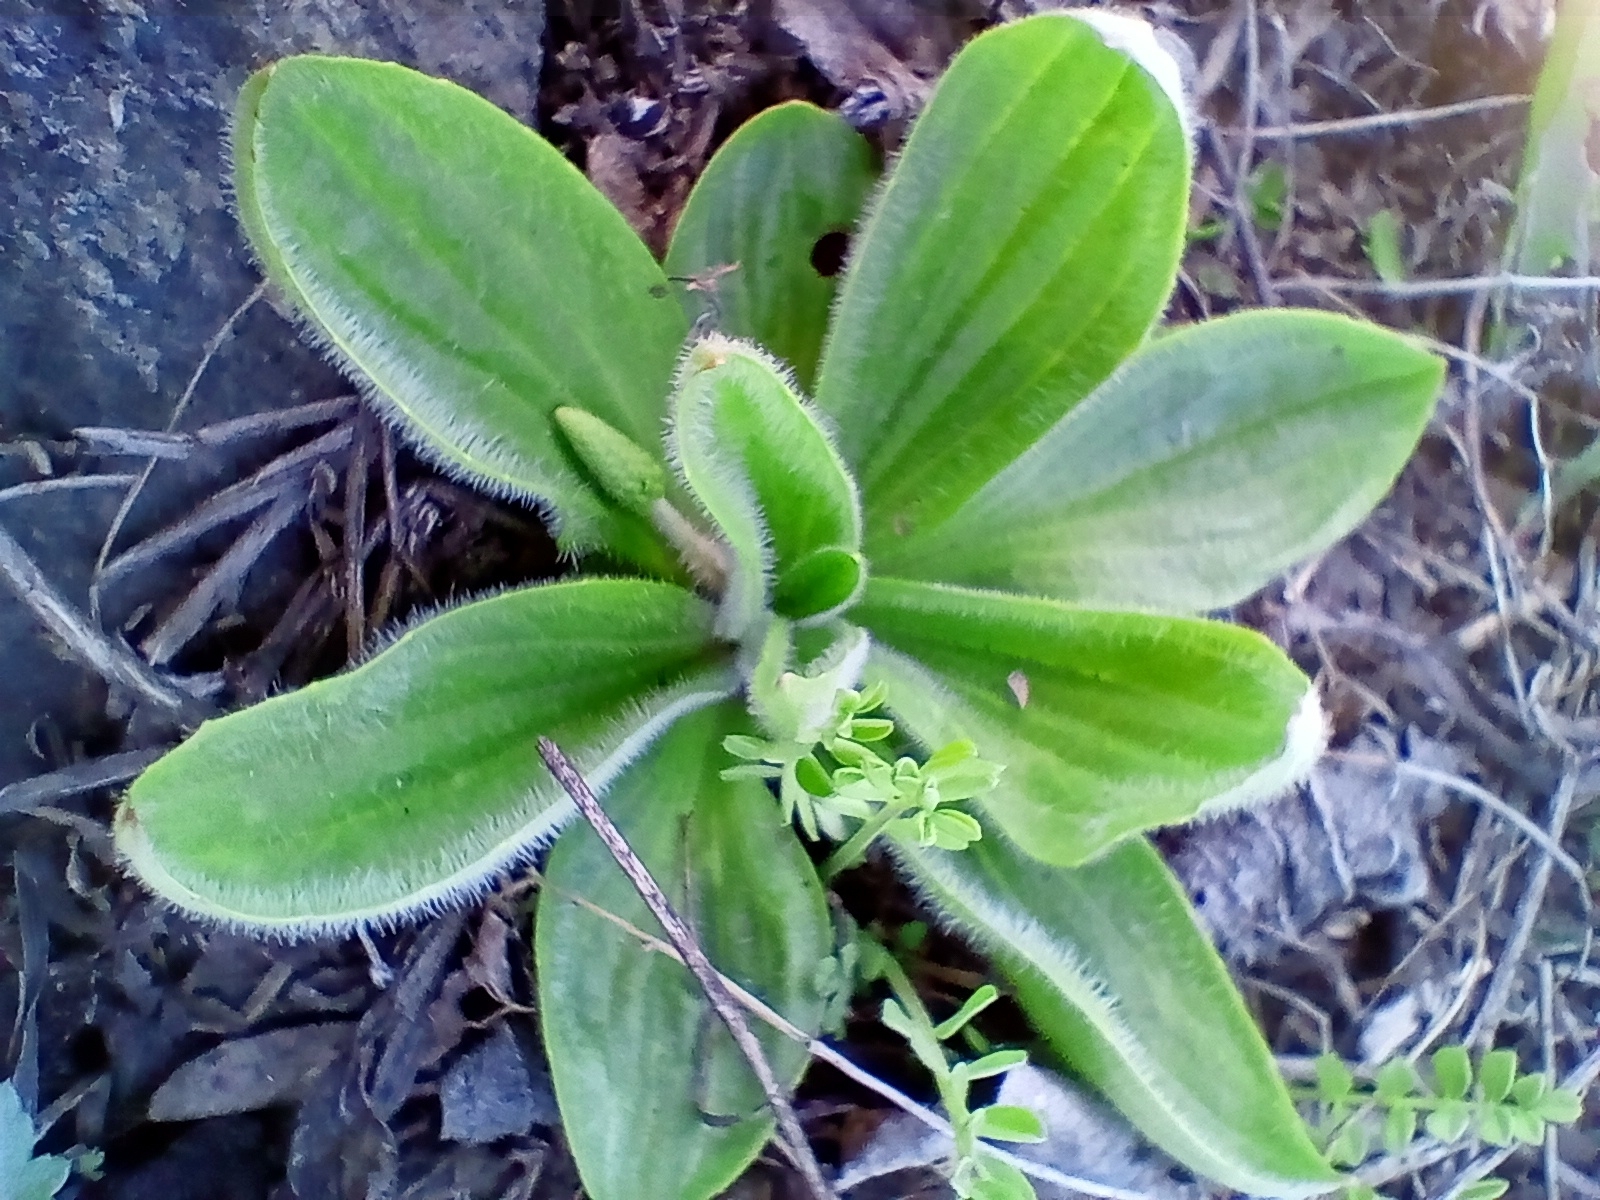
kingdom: Plantae
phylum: Tracheophyta
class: Magnoliopsida
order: Lamiales
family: Plantaginaceae
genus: Plantago
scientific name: Plantago media
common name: Hoary plantain
